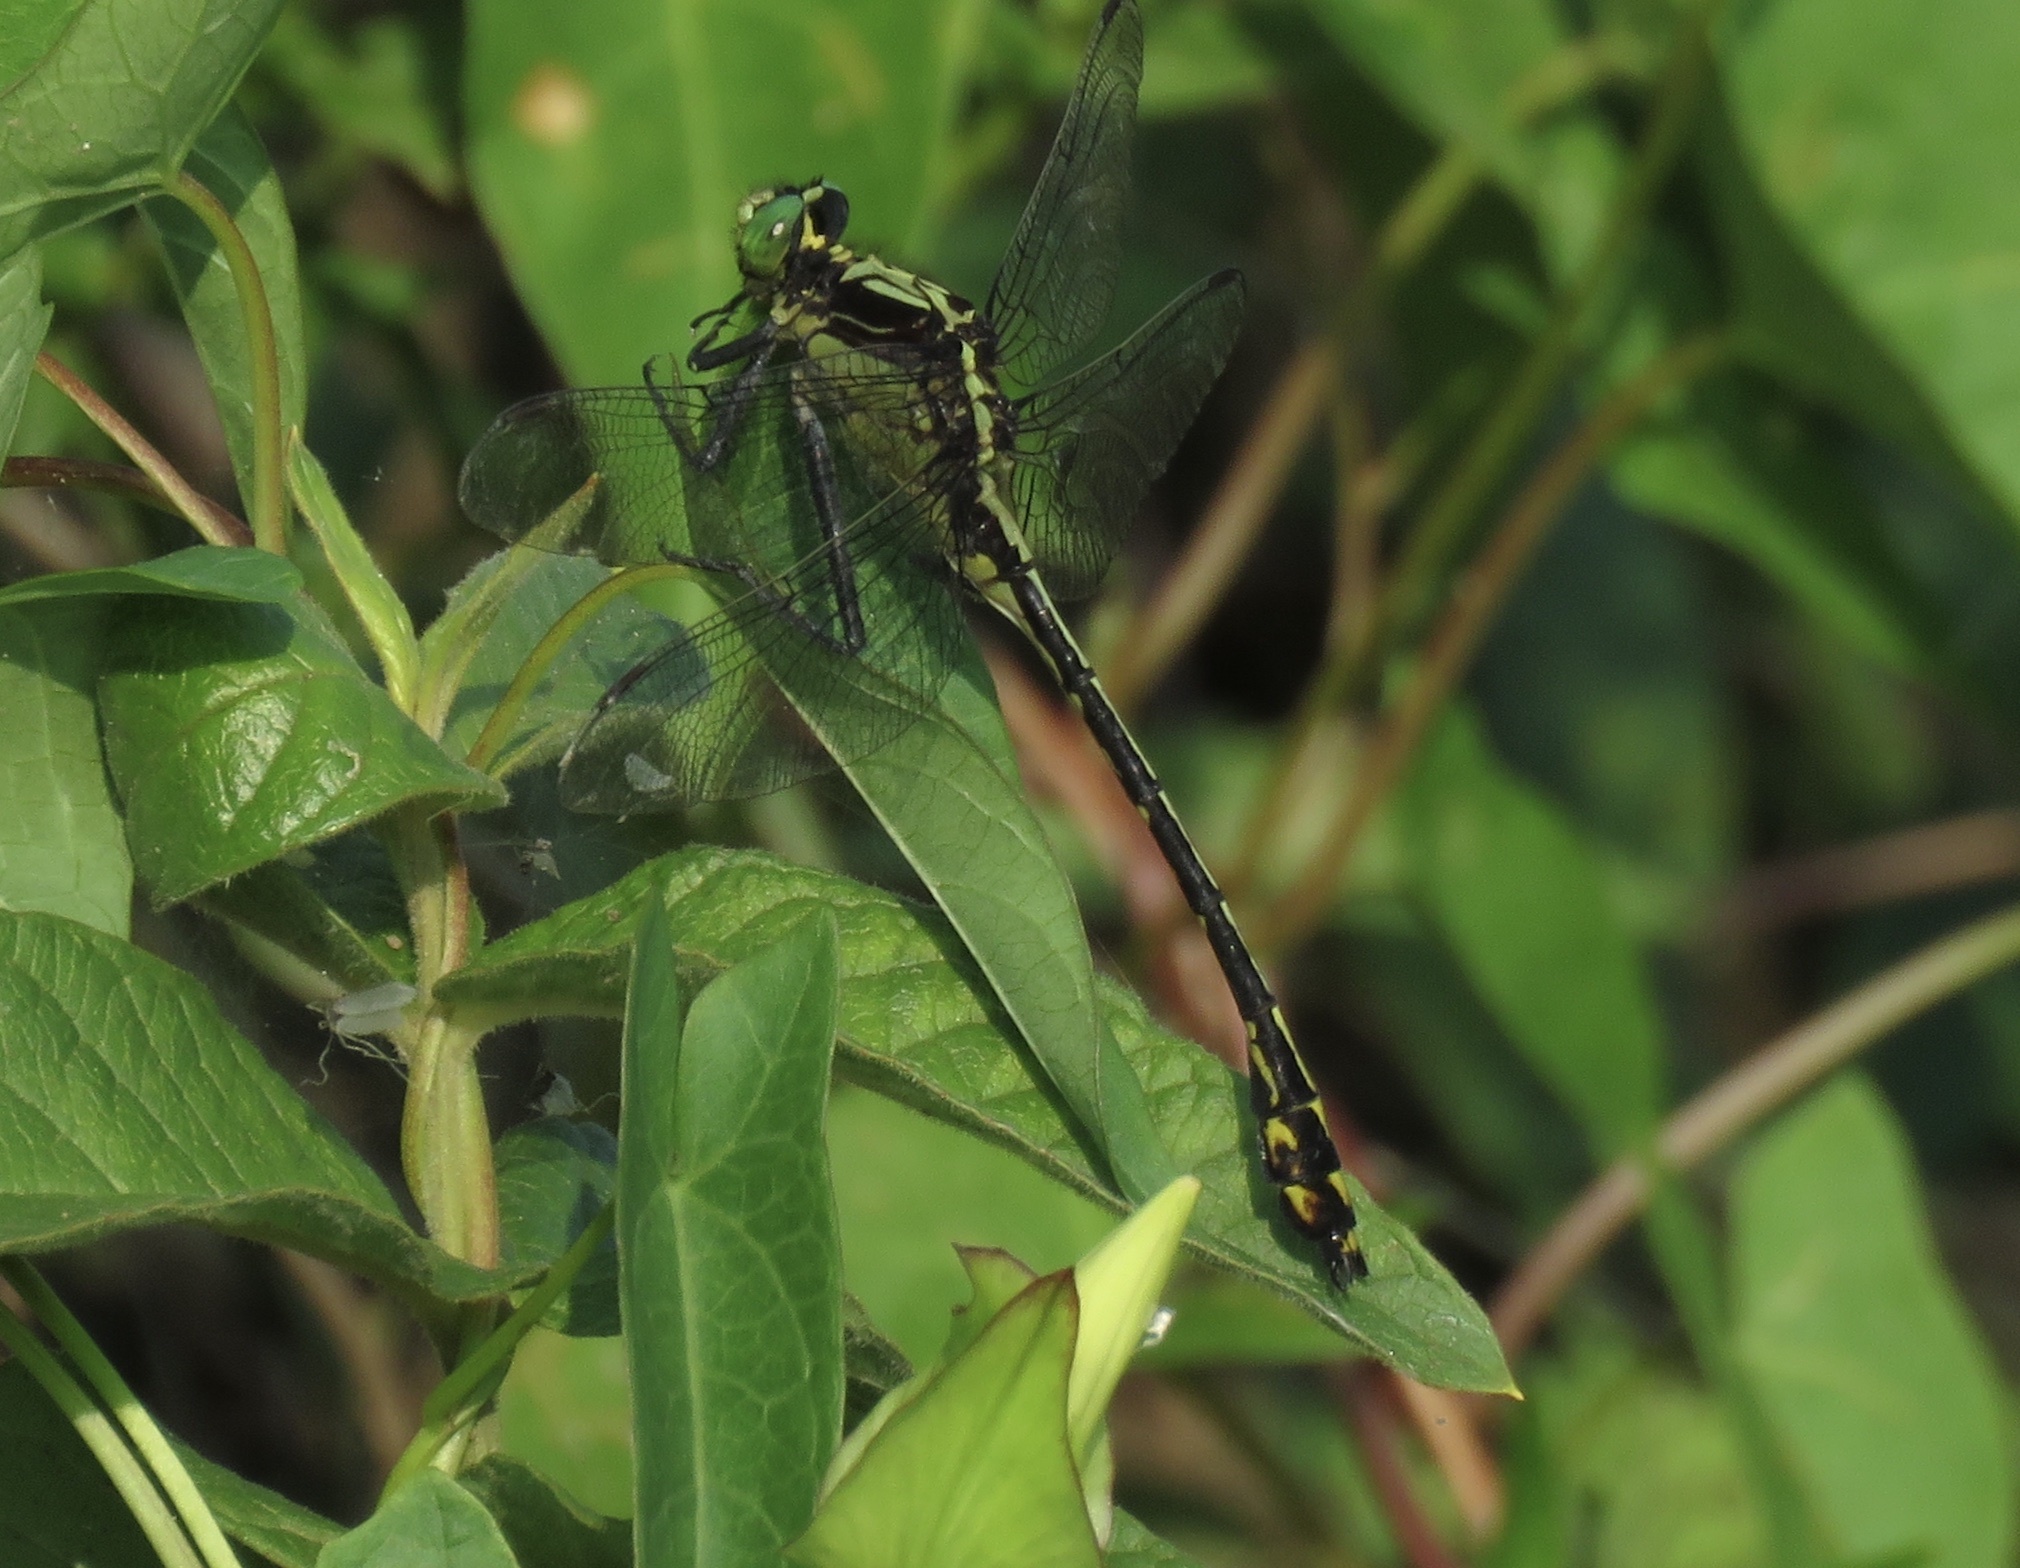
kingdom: Animalia
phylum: Arthropoda
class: Insecta
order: Odonata
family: Gomphidae
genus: Dromogomphus
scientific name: Dromogomphus spinosus
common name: Black-shouldered spinyleg
